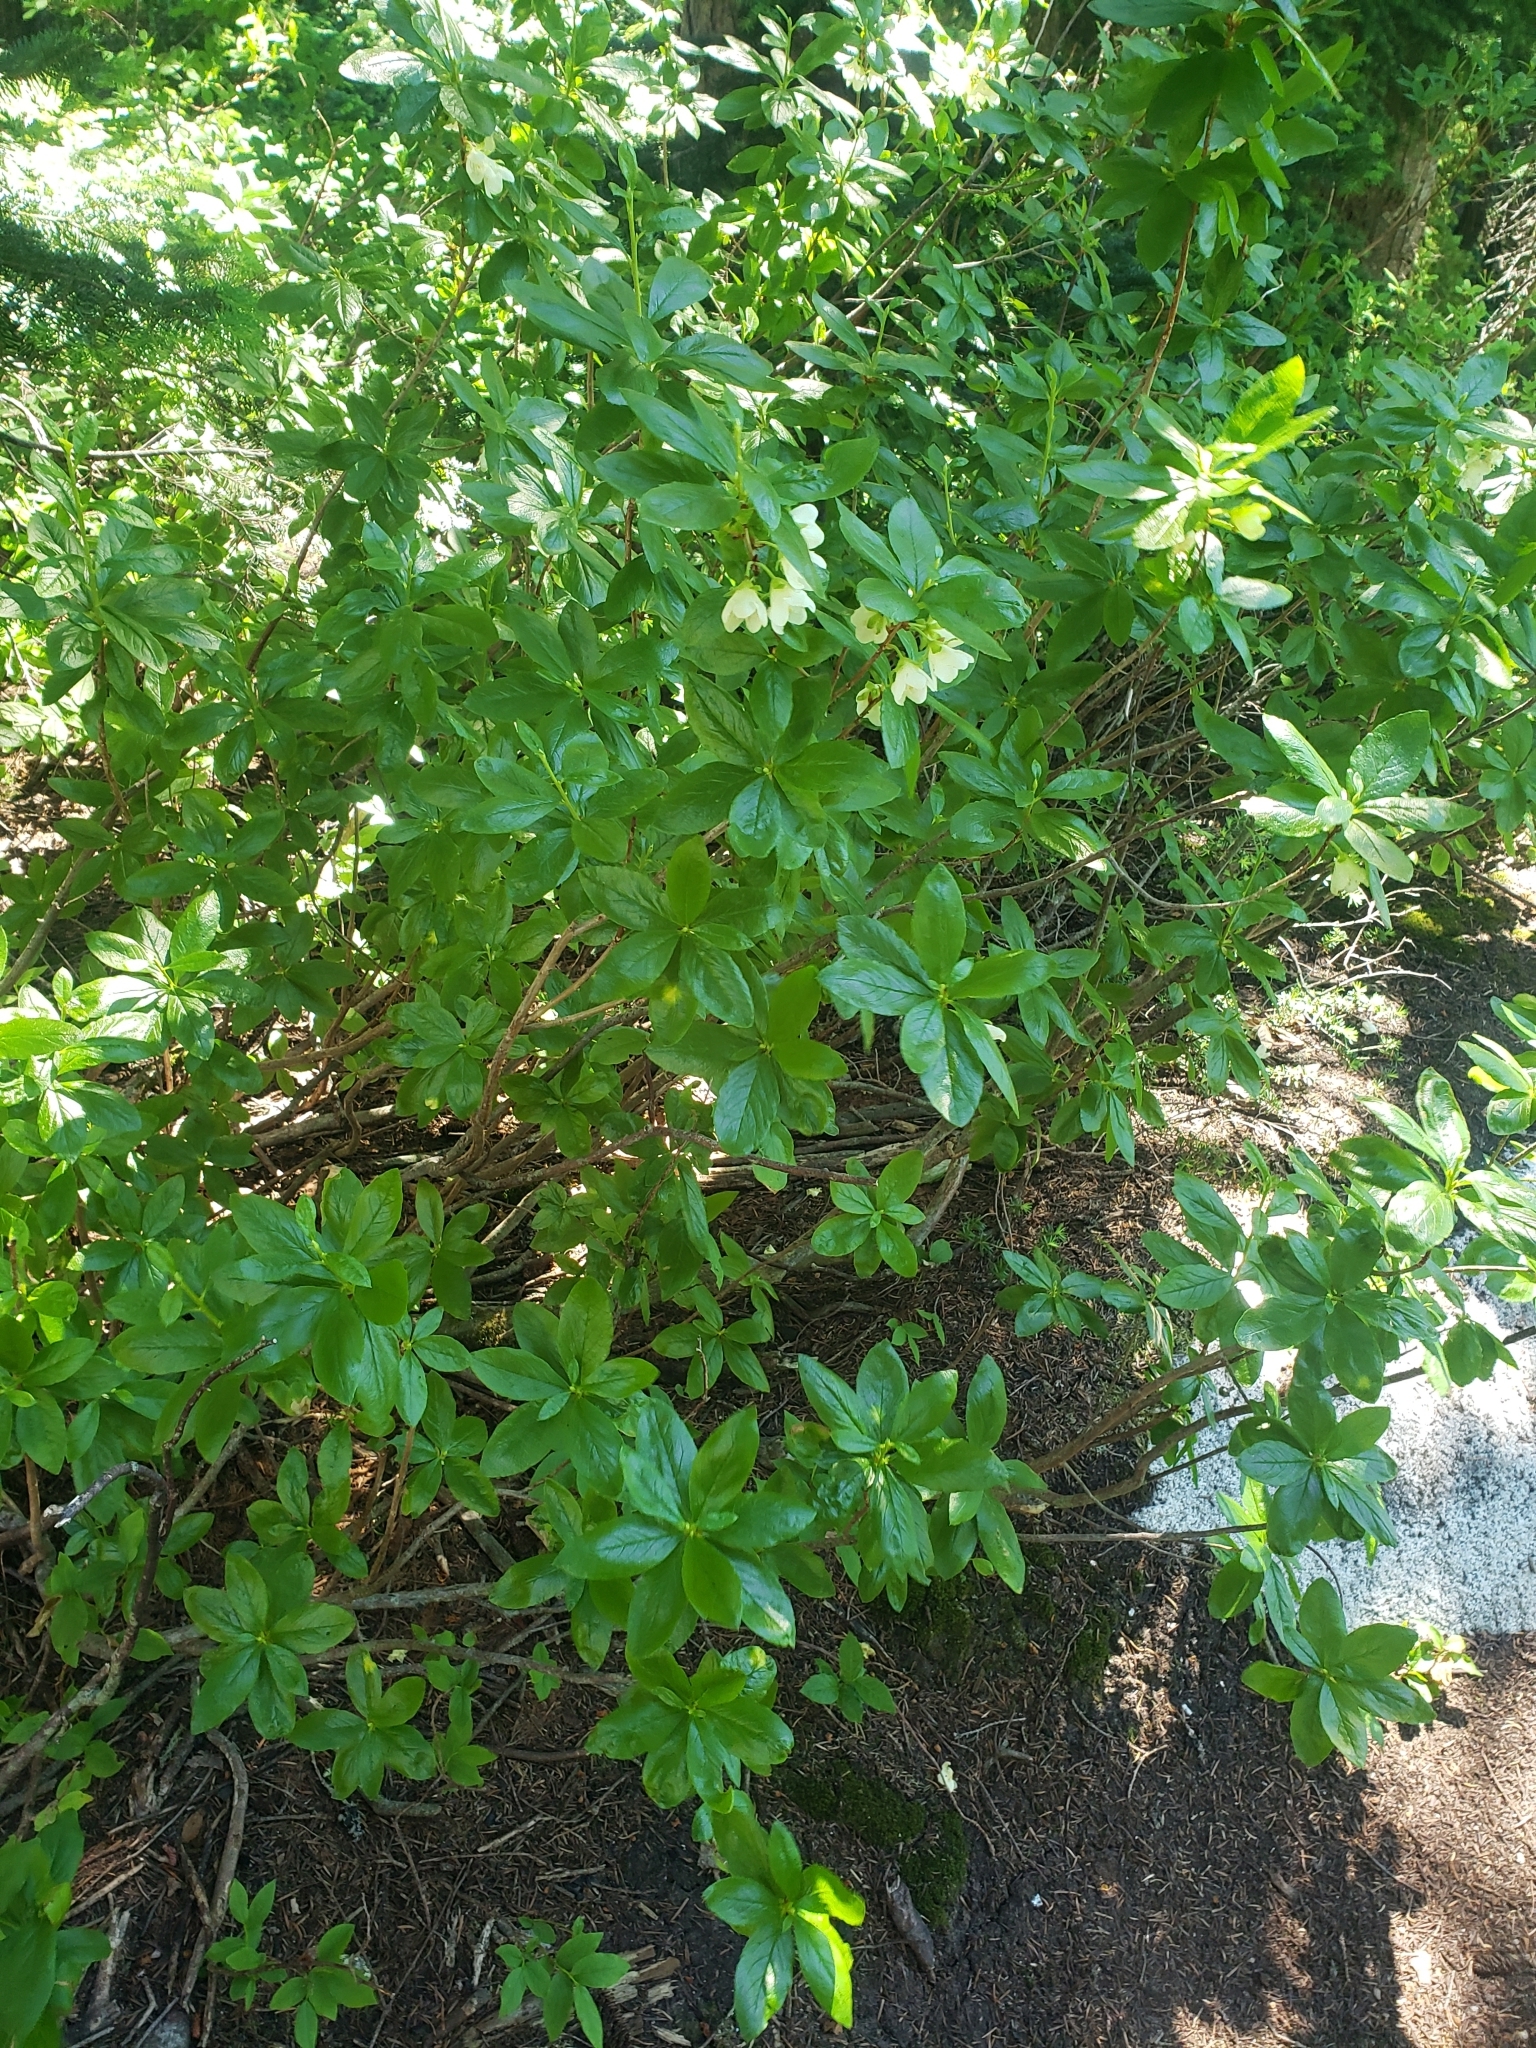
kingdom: Plantae
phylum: Tracheophyta
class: Magnoliopsida
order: Ericales
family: Ericaceae
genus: Rhododendron
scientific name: Rhododendron albiflorum
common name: White rhododendron
